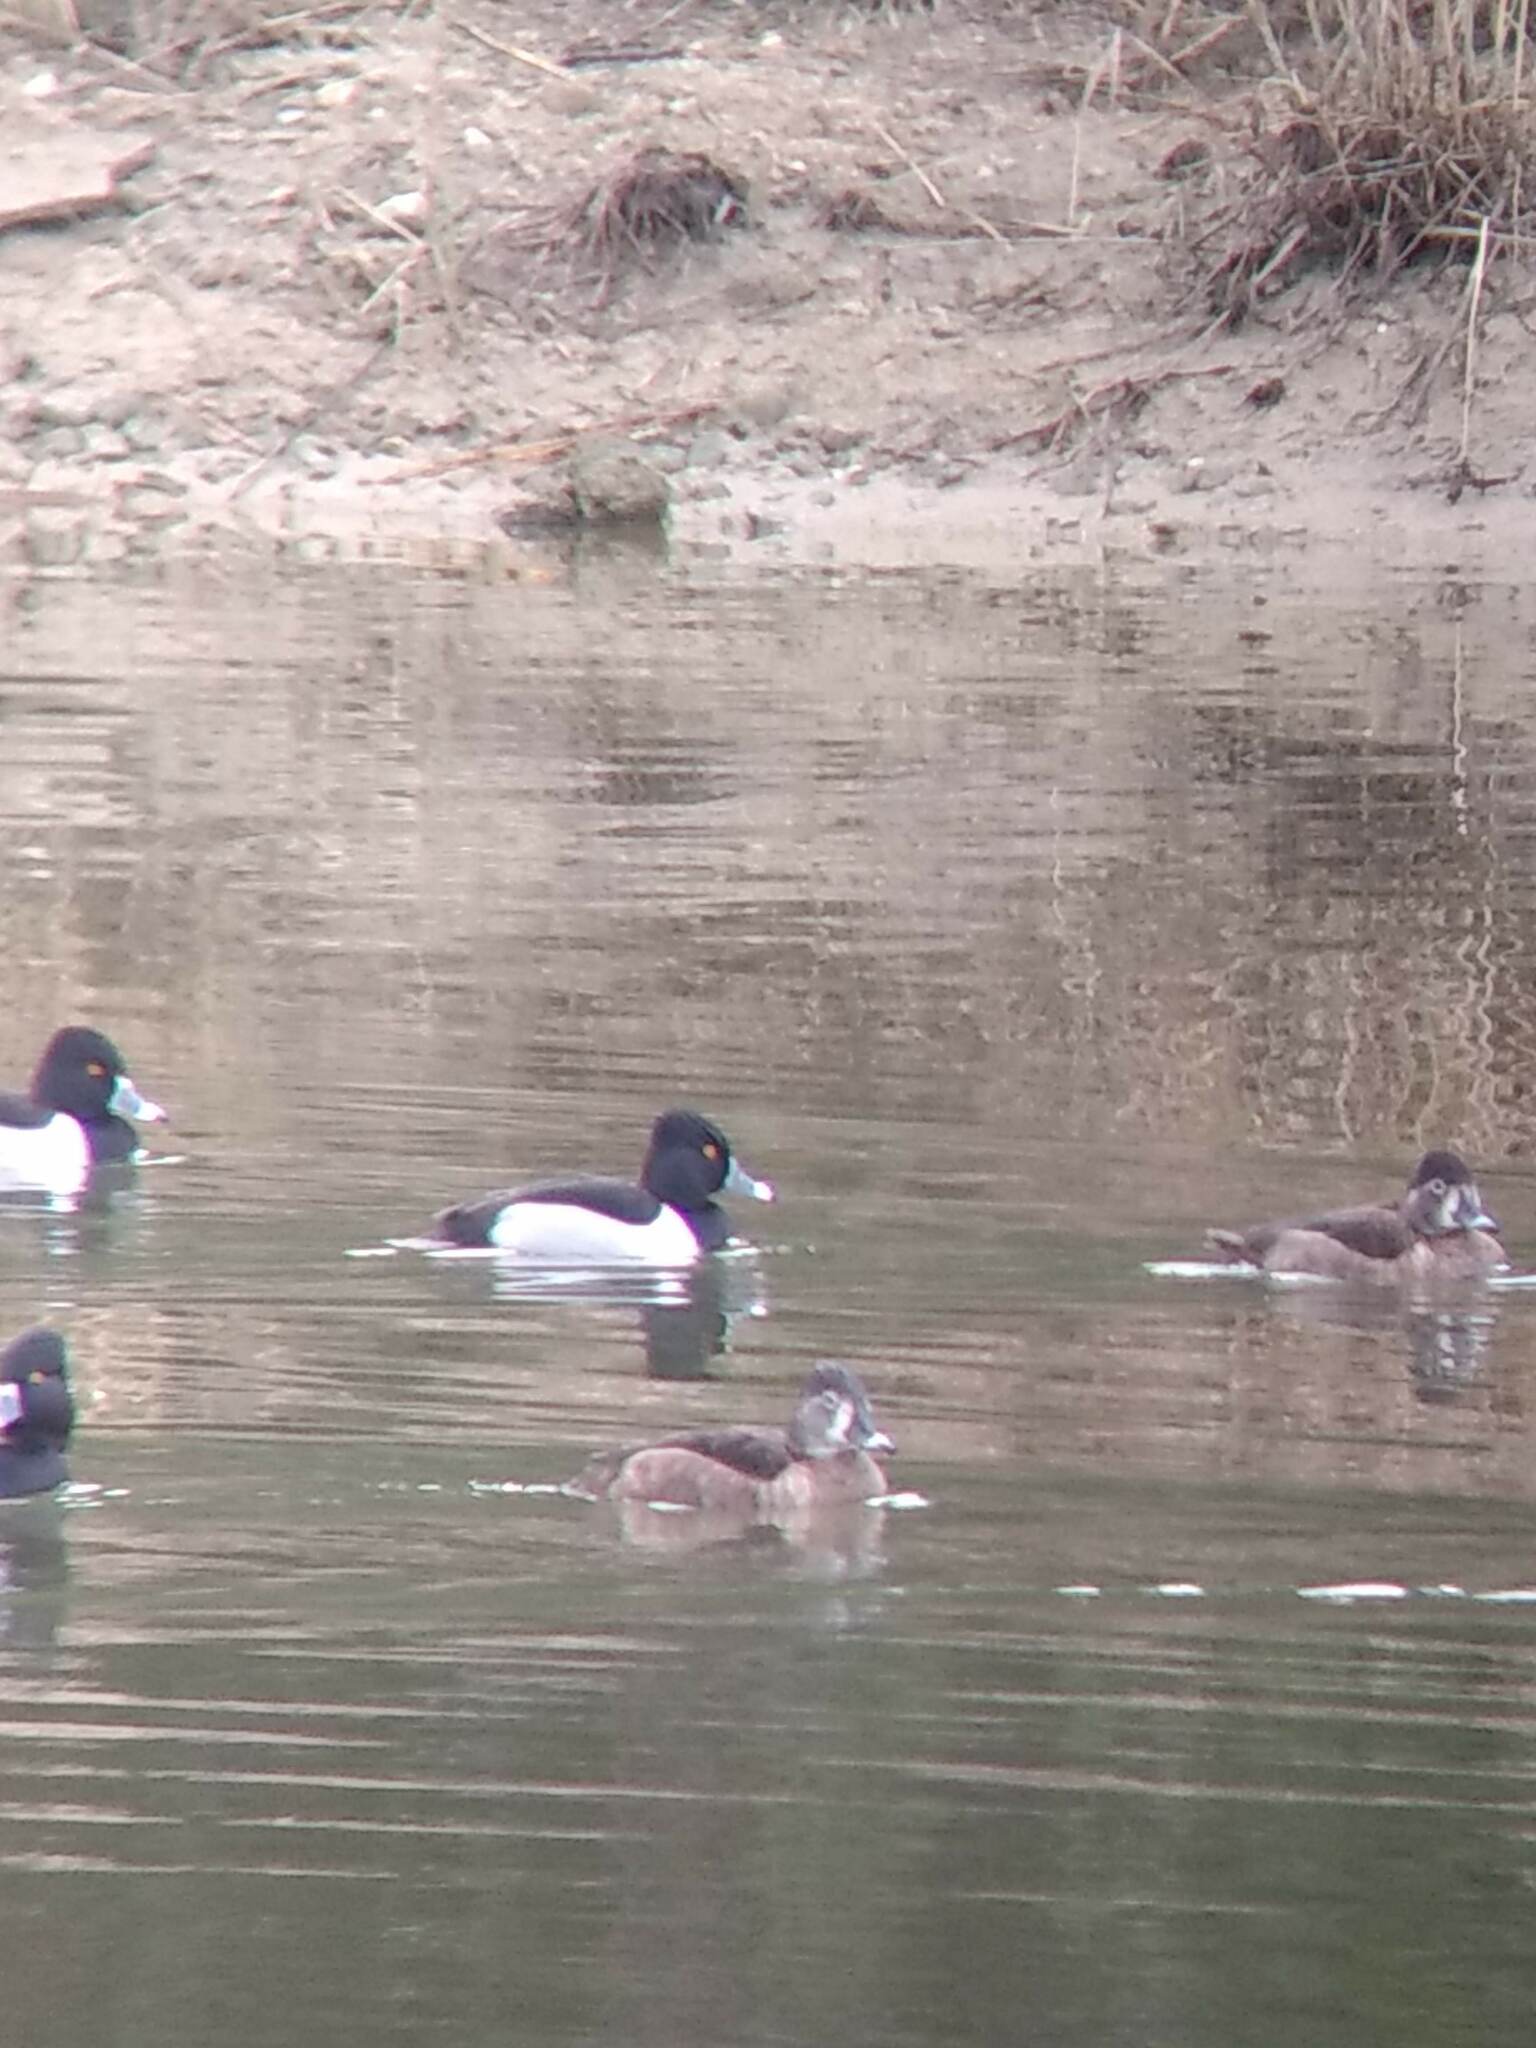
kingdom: Animalia
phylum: Chordata
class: Aves
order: Anseriformes
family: Anatidae
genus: Aythya
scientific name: Aythya collaris
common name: Ring-necked duck
